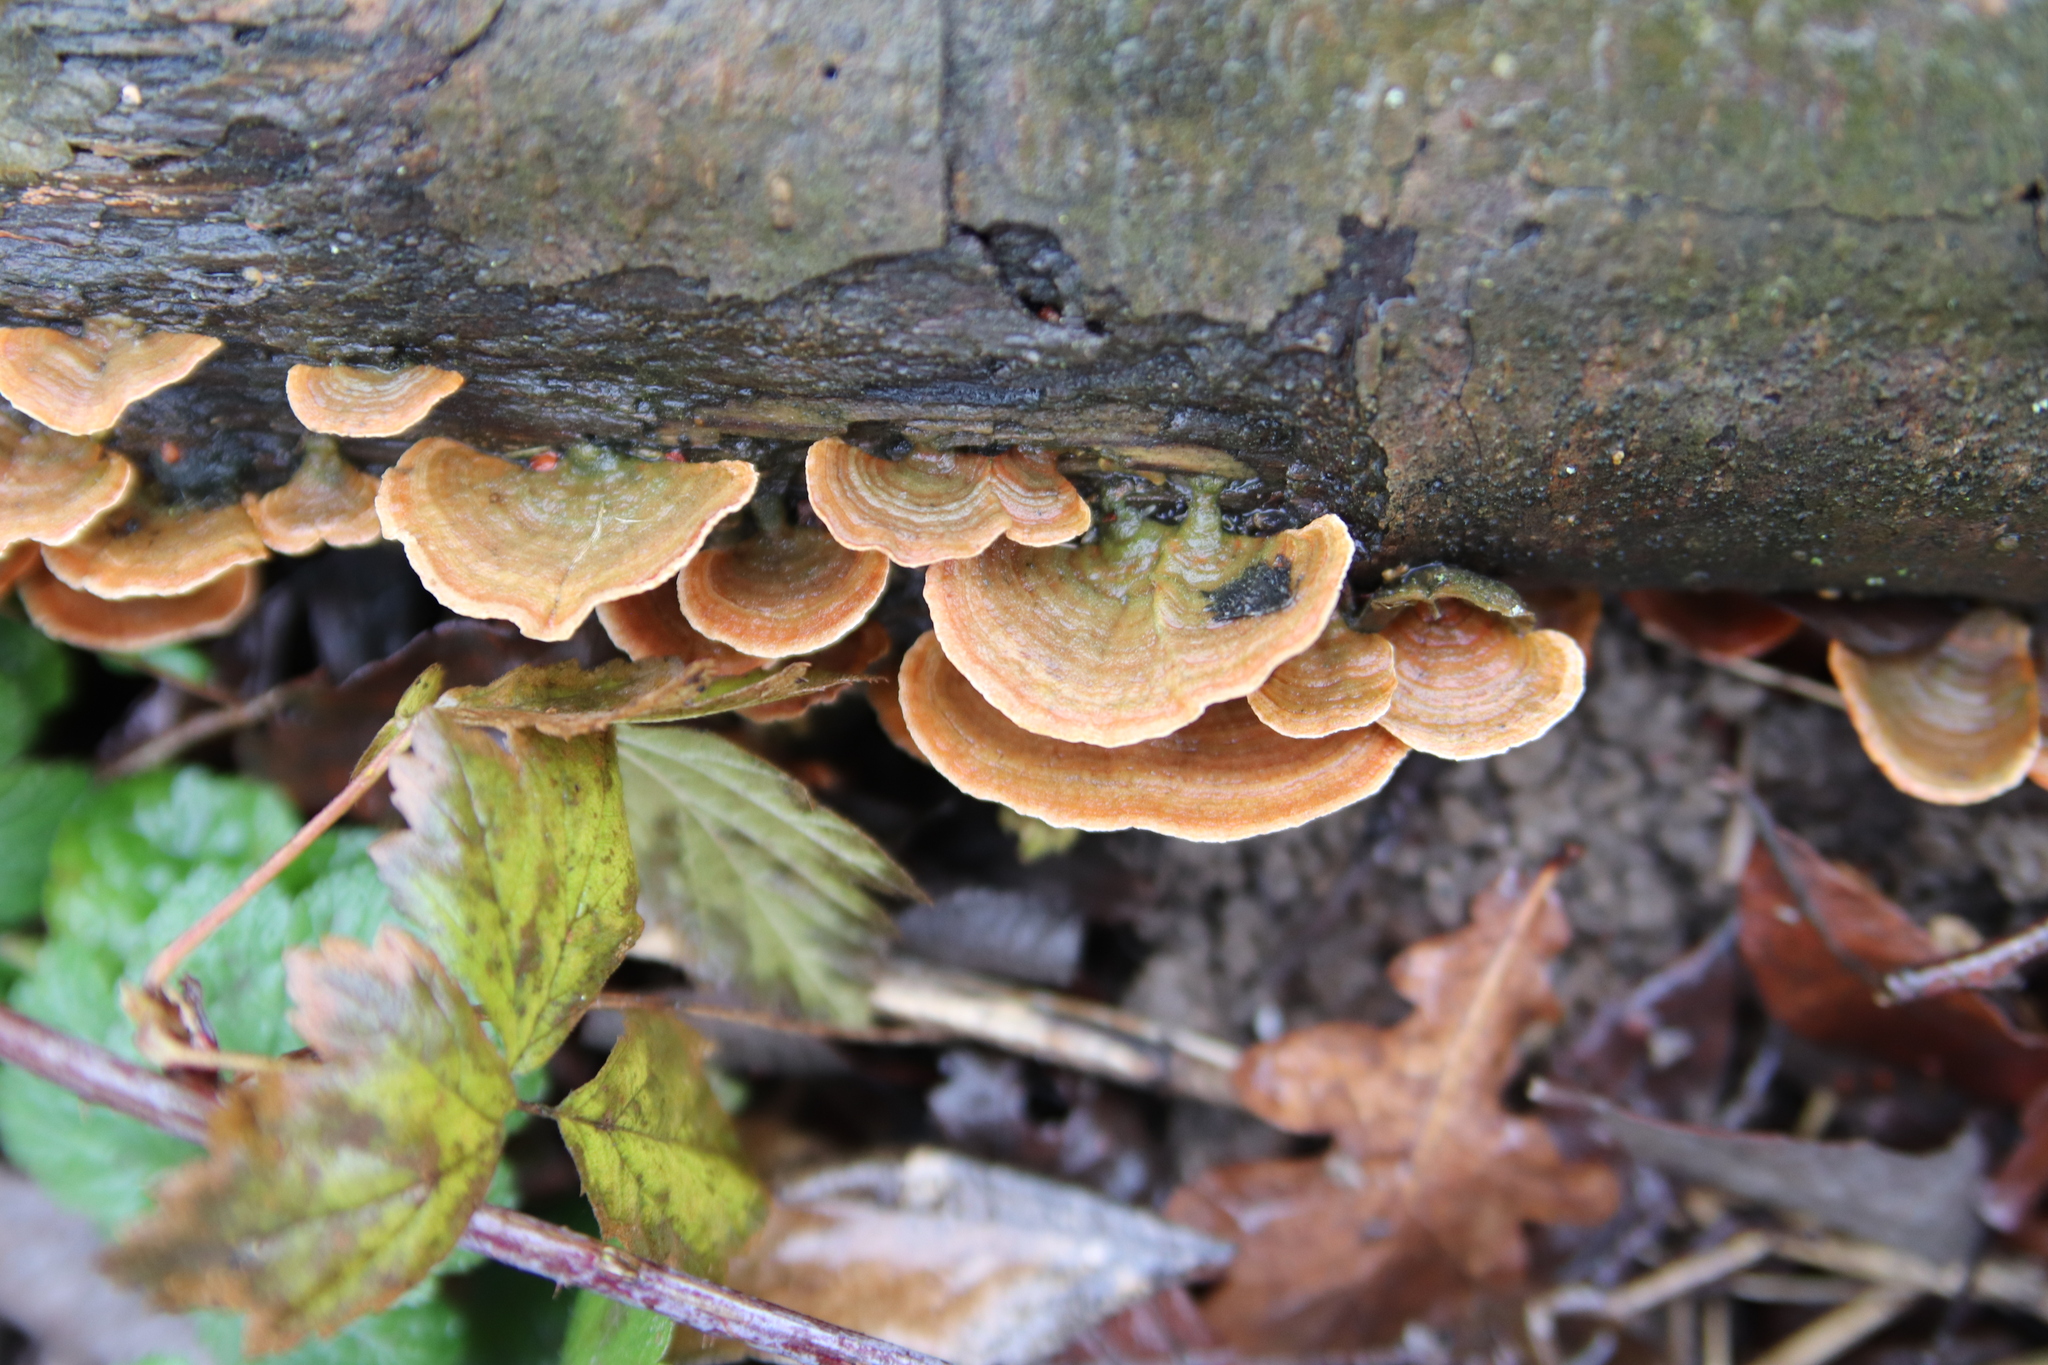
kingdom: Fungi
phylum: Basidiomycota
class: Agaricomycetes
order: Russulales
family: Stereaceae
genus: Stereum
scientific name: Stereum subtomentosum
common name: Yellowing curtain crust
